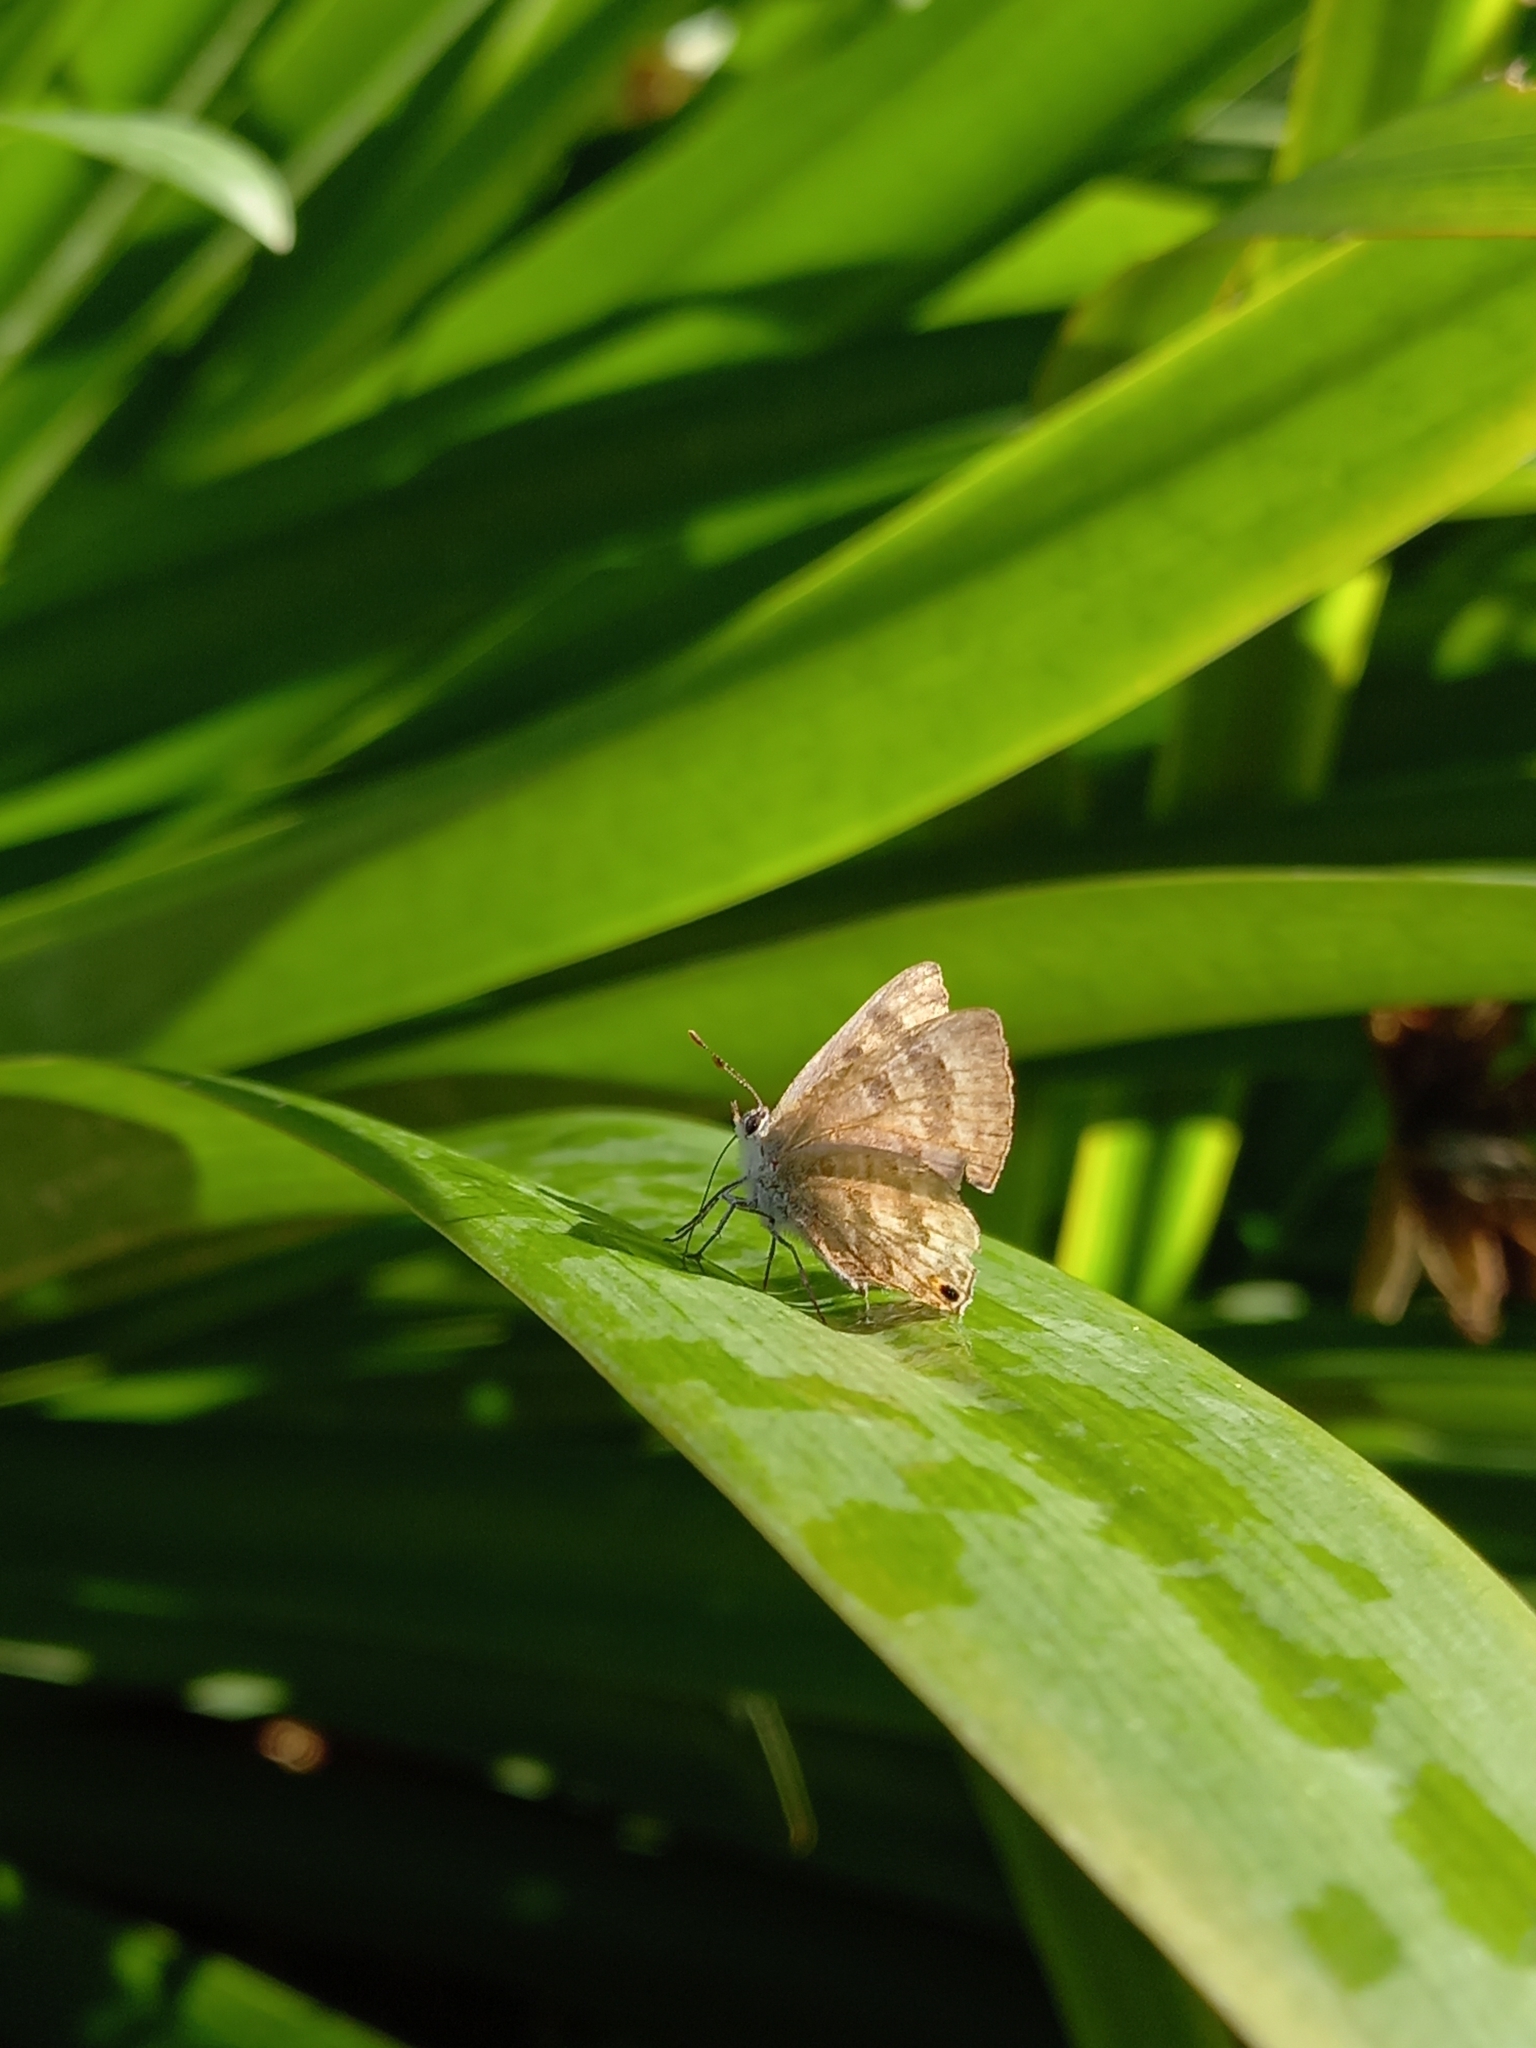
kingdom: Animalia
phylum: Arthropoda
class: Insecta
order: Lepidoptera
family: Lycaenidae
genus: Anthene
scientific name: Anthene definita
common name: Common ciliate blue
